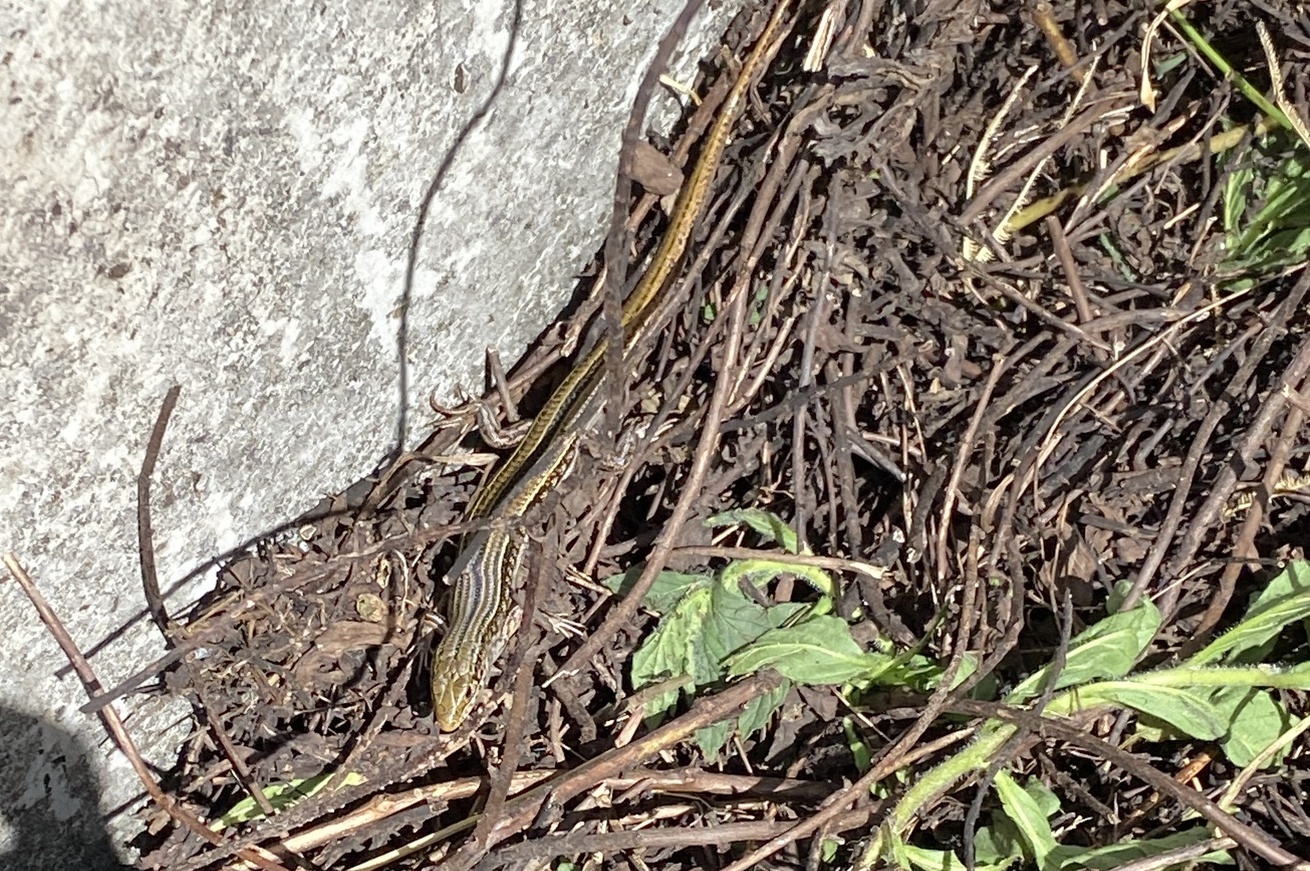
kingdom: Animalia
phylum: Chordata
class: Squamata
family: Scincidae
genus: Ctenotus
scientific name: Ctenotus robustus
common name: Robust ctenotus
